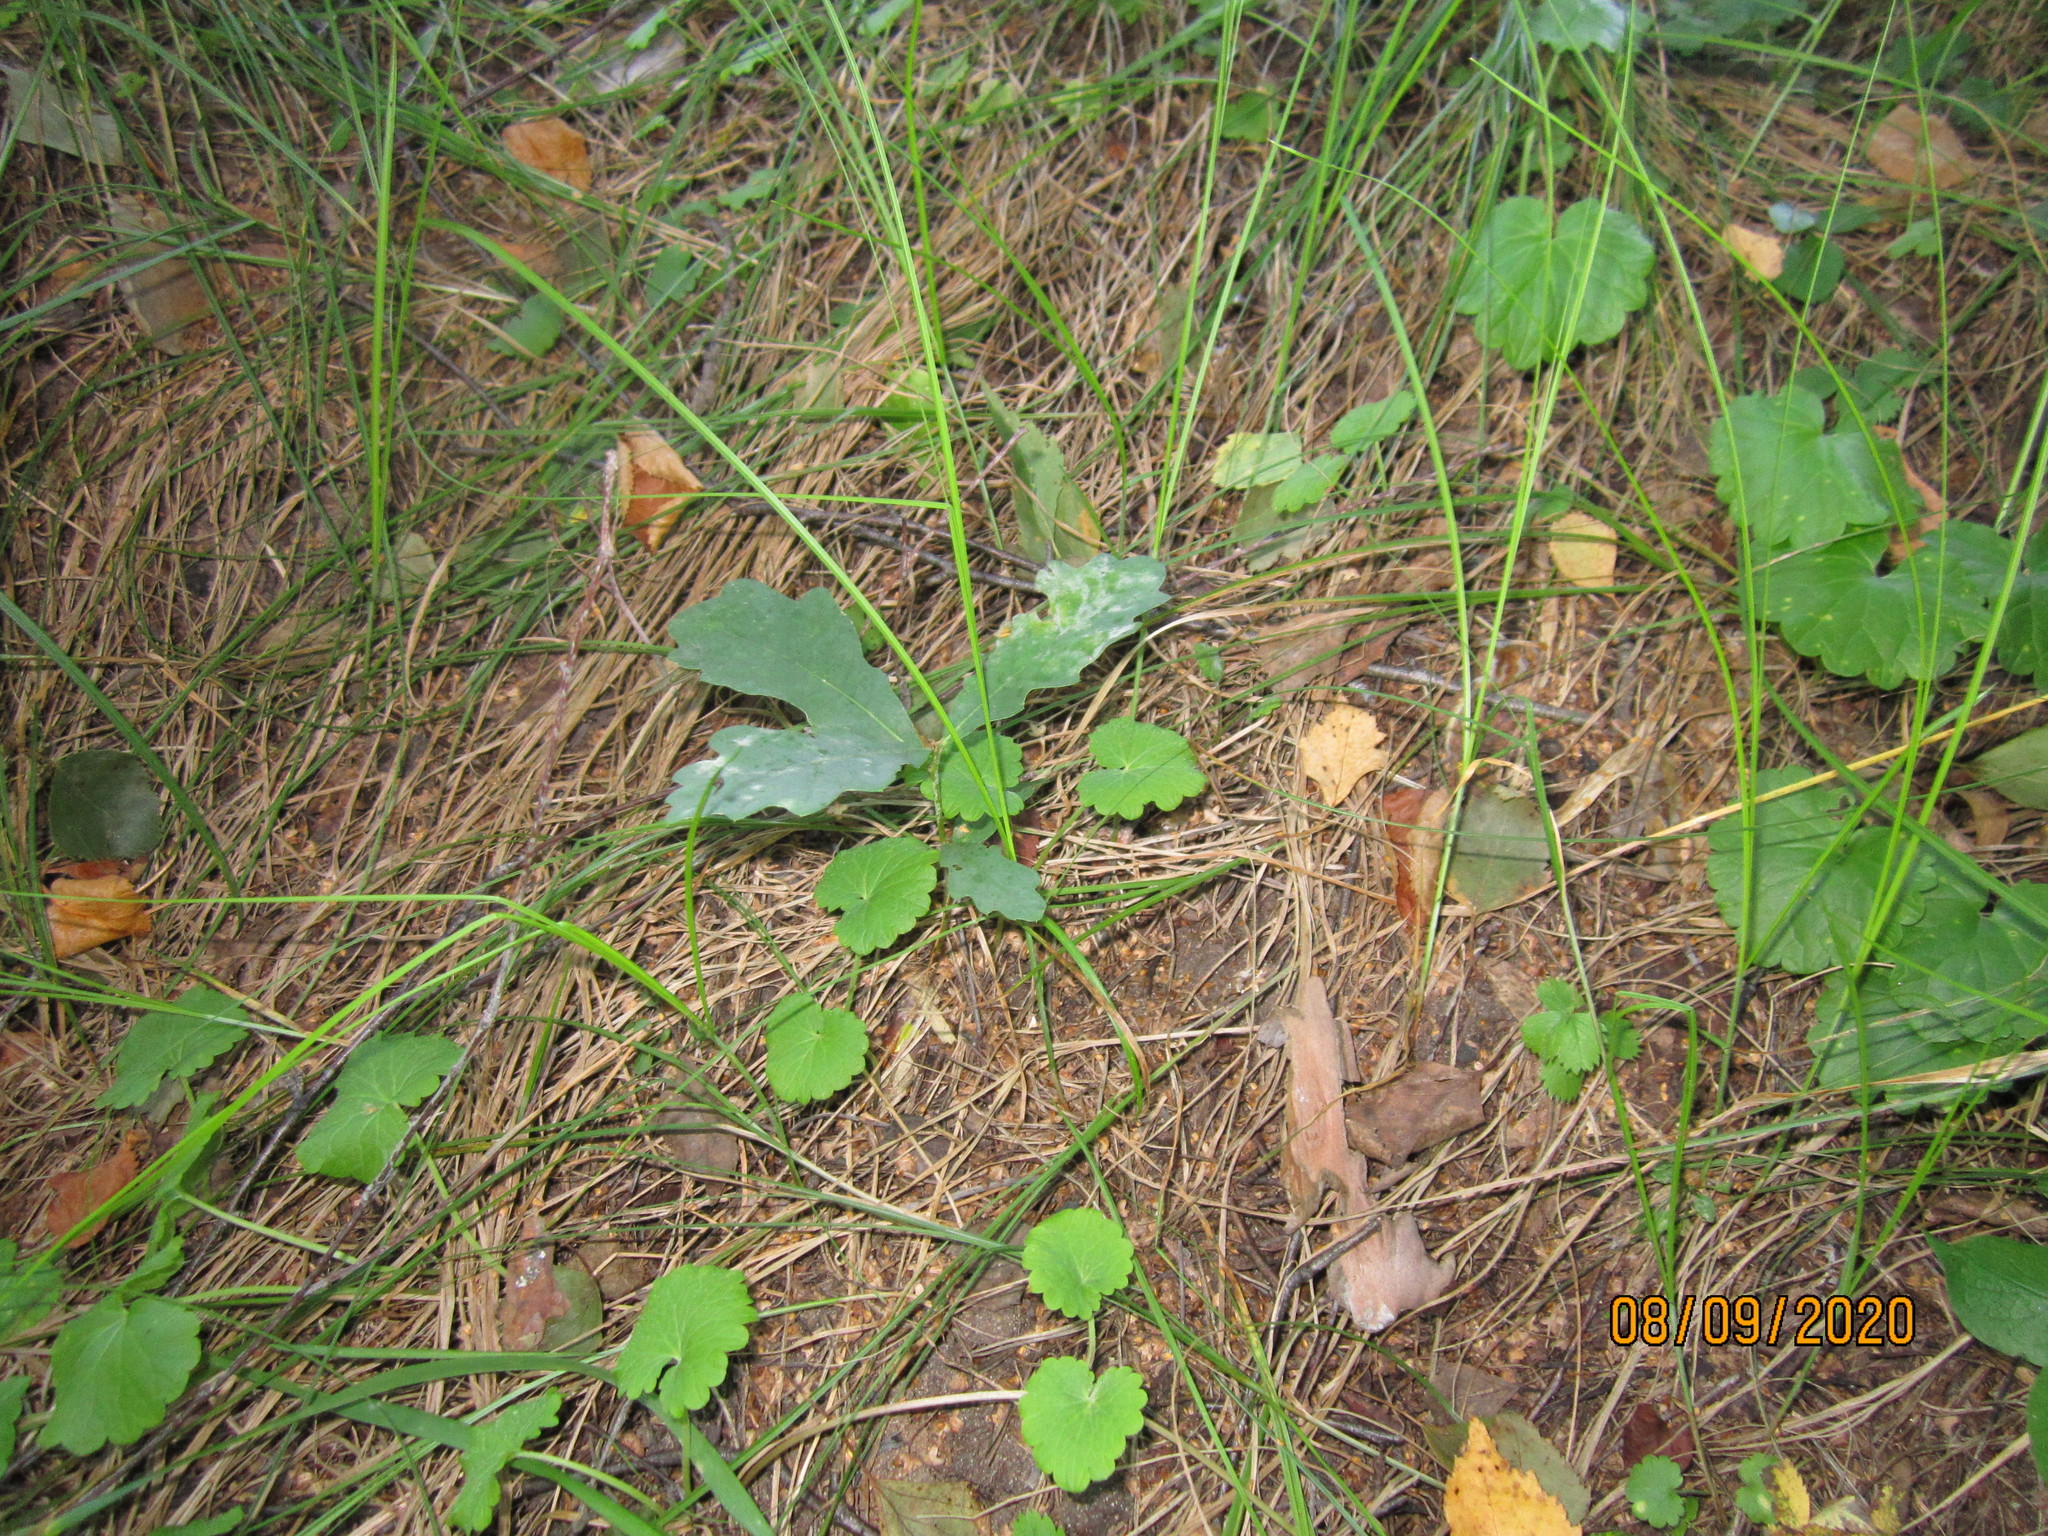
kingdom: Plantae
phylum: Tracheophyta
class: Magnoliopsida
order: Fagales
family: Fagaceae
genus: Quercus
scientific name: Quercus robur
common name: Pedunculate oak
